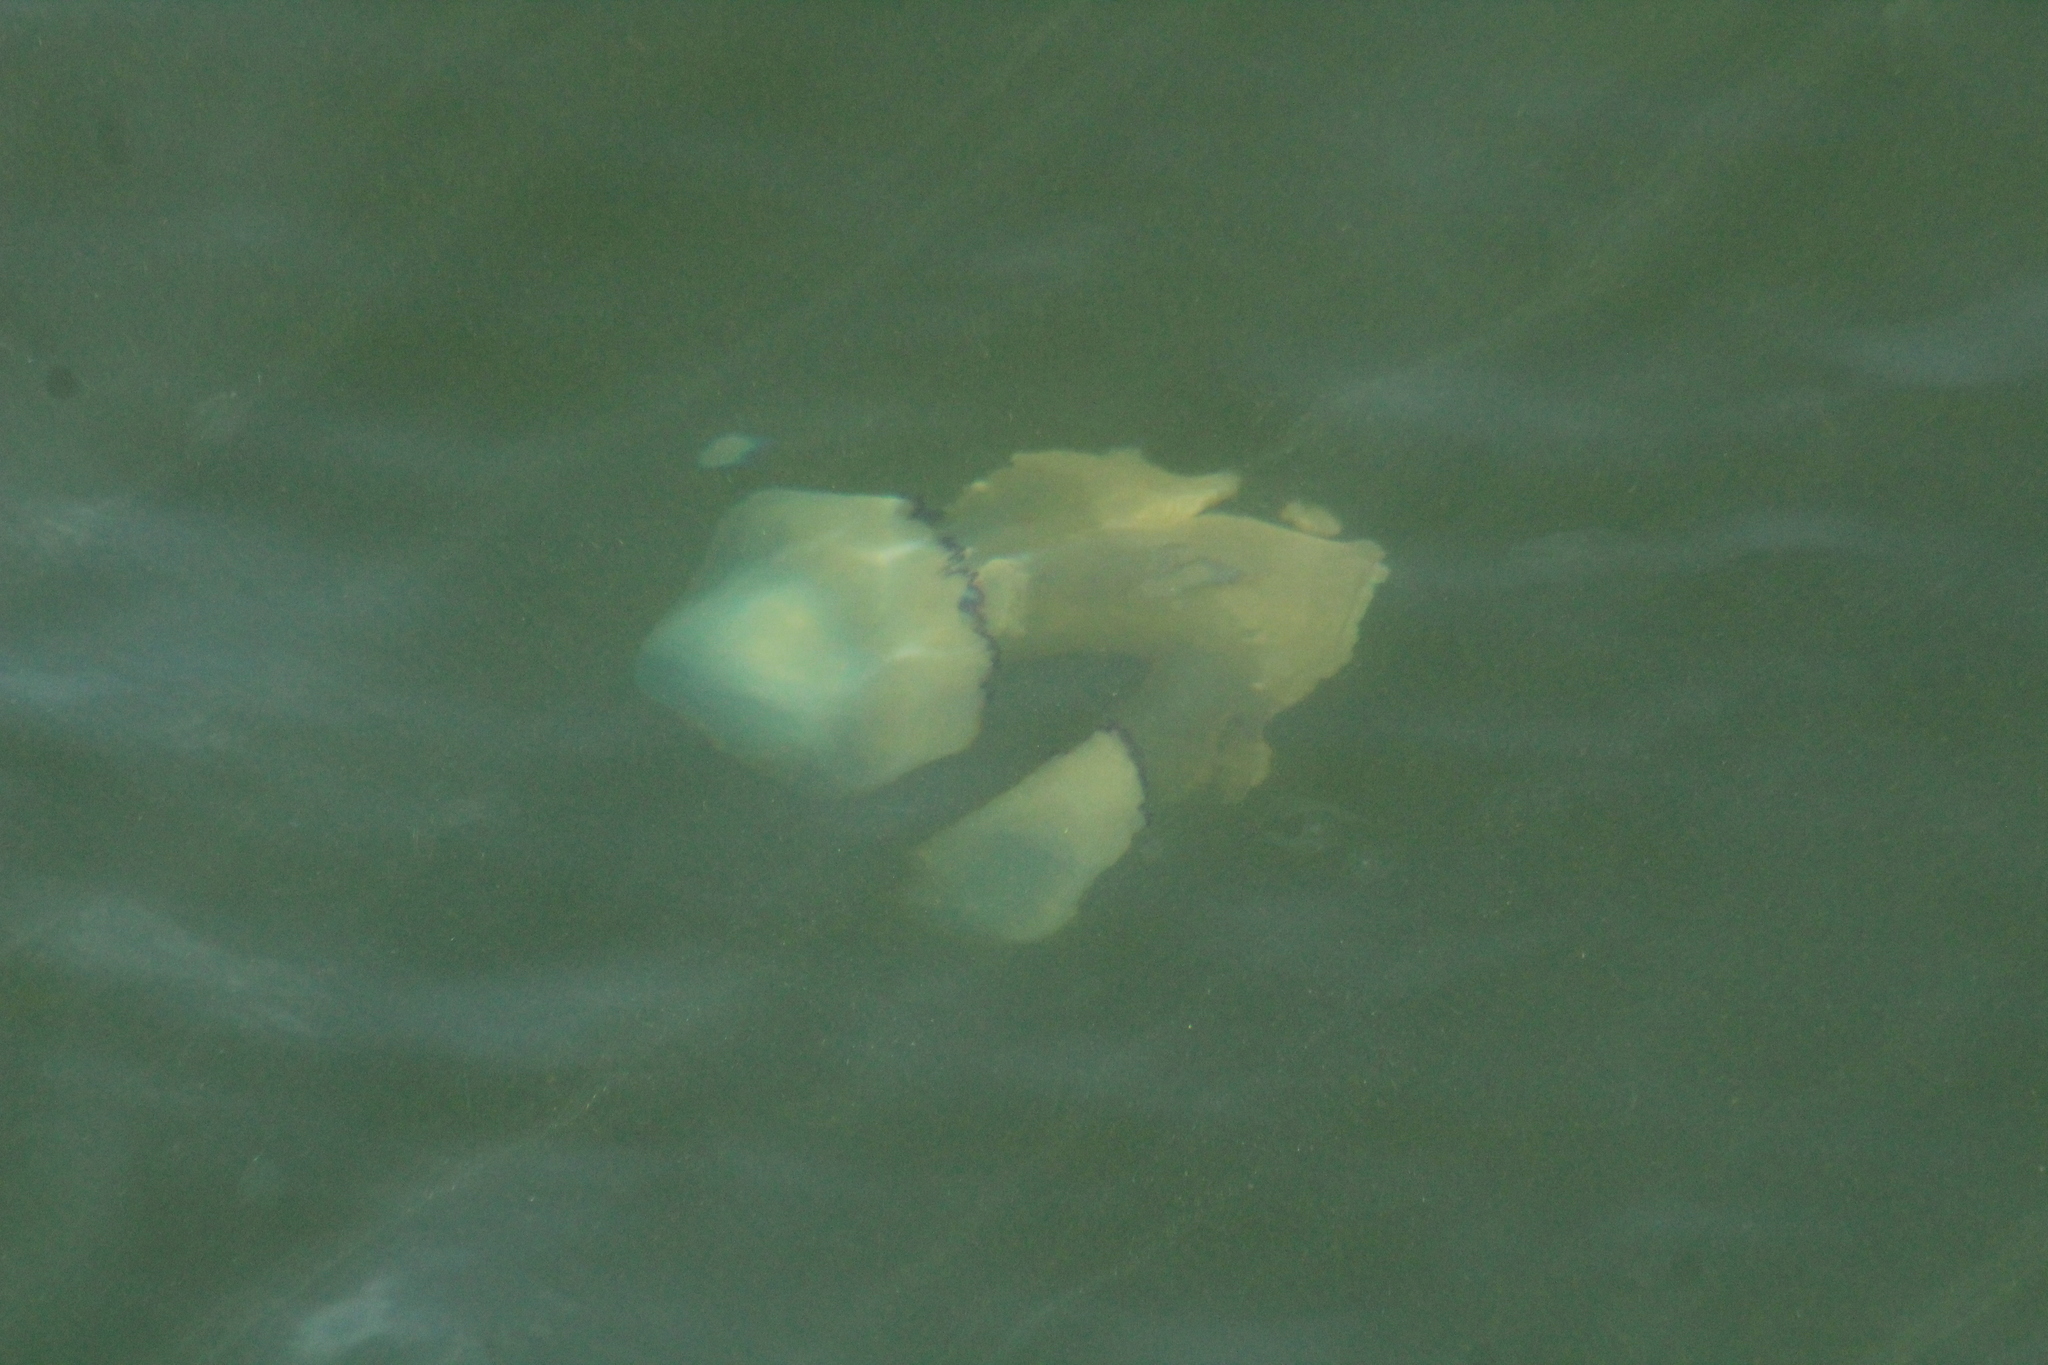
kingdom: Animalia
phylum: Cnidaria
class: Scyphozoa
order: Rhizostomeae
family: Rhizostomatidae
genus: Rhizostoma
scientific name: Rhizostoma octopus
